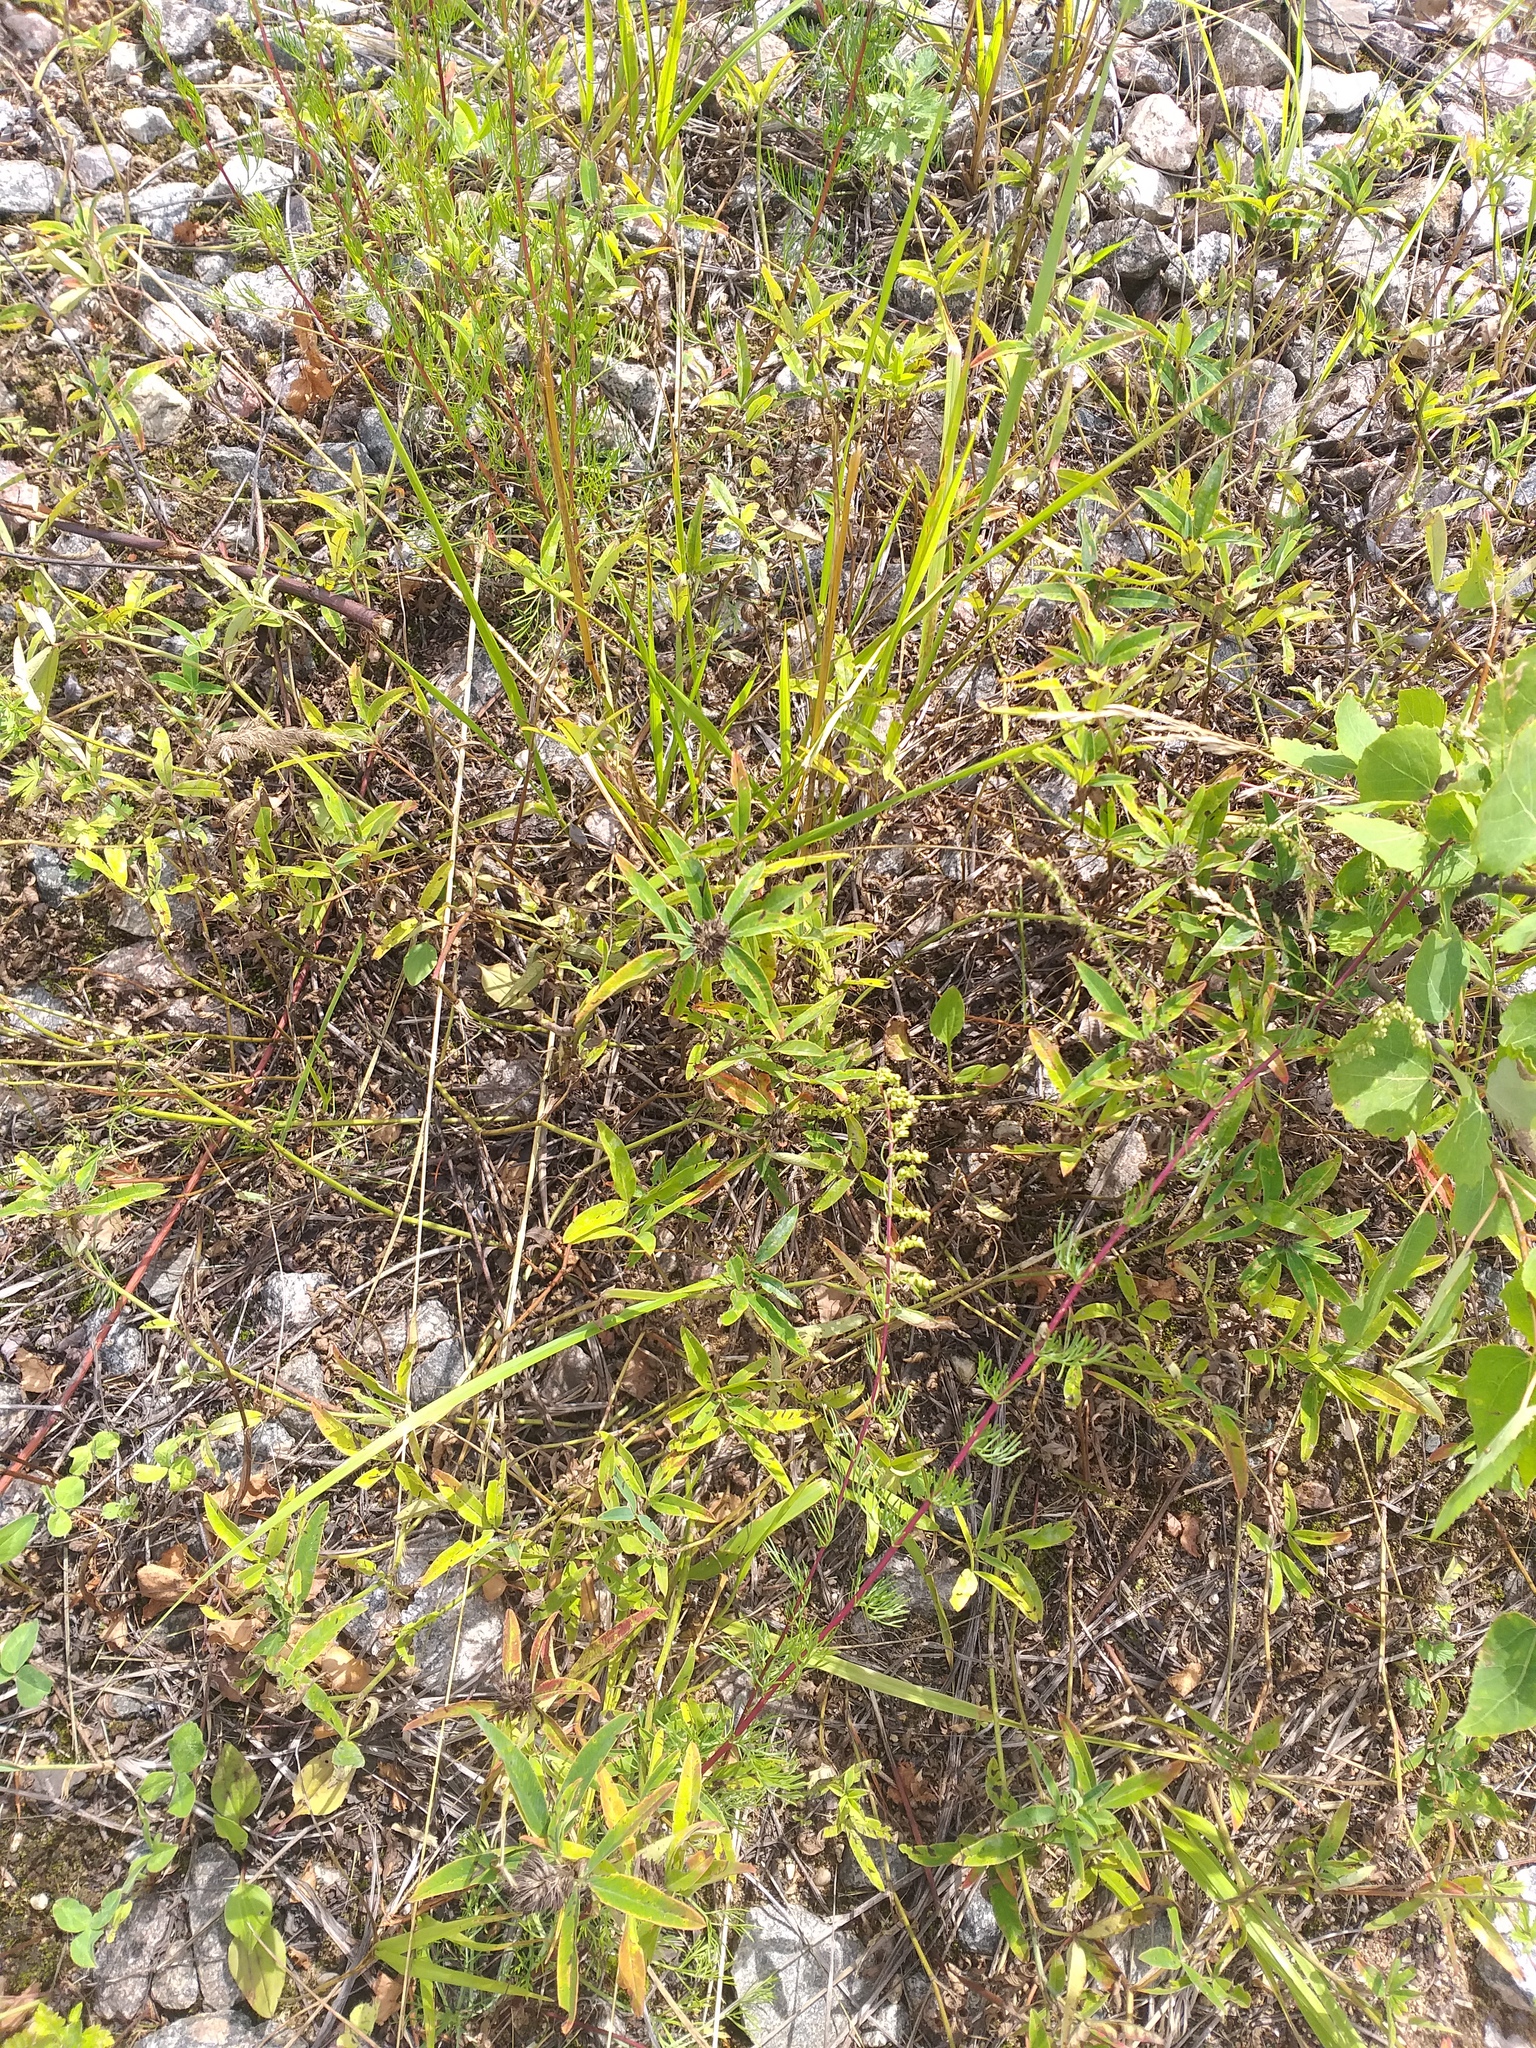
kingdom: Plantae
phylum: Tracheophyta
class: Magnoliopsida
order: Fabales
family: Fabaceae
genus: Trifolium
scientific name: Trifolium medium
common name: Zigzag clover
